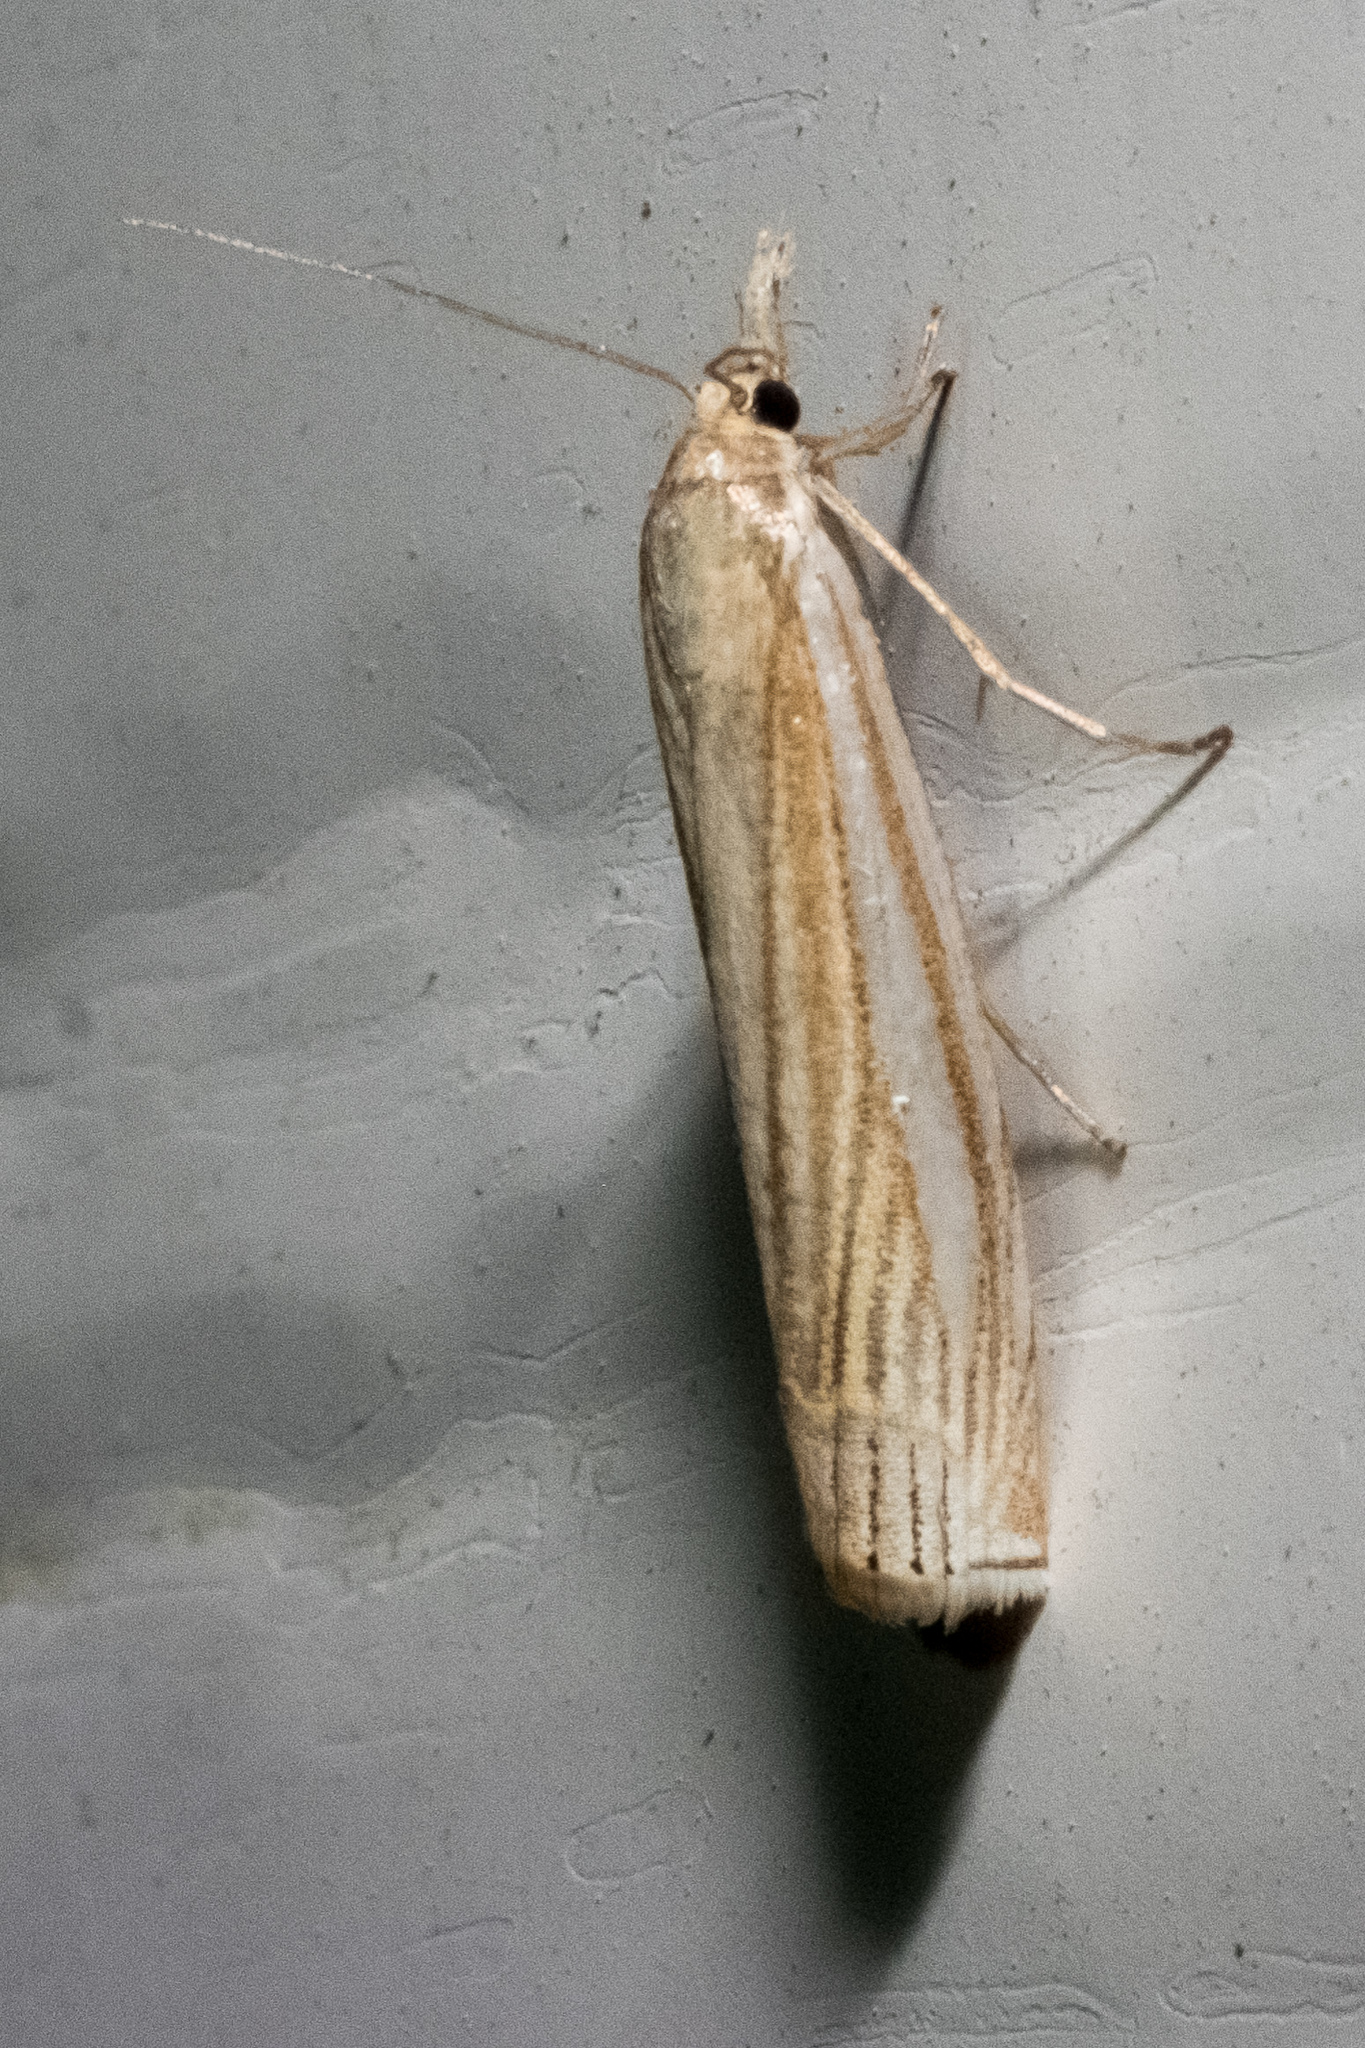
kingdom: Animalia
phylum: Arthropoda
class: Insecta
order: Lepidoptera
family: Crambidae
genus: Crambus
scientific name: Crambus laqueatellus
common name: Eastern grass-veneer
